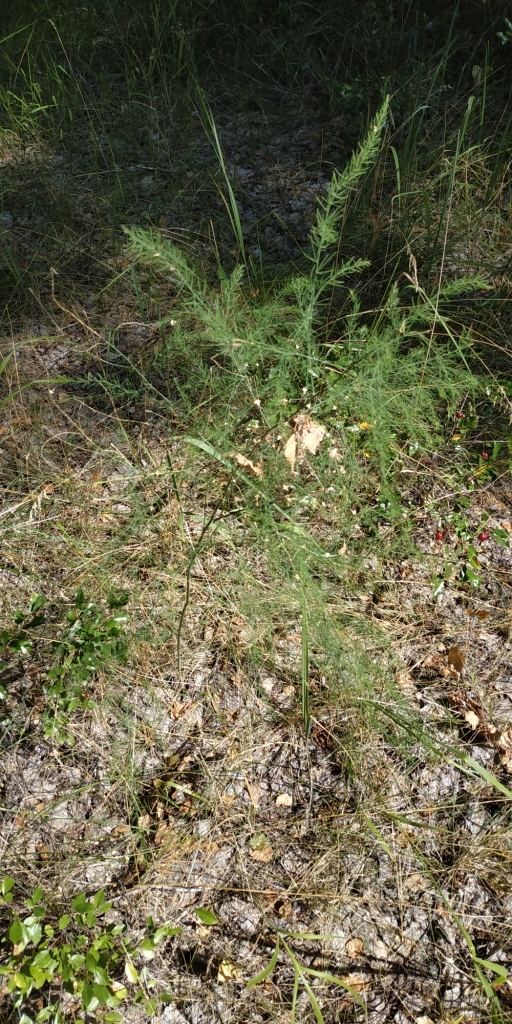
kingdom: Plantae
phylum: Tracheophyta
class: Liliopsida
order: Asparagales
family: Asparagaceae
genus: Asparagus
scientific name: Asparagus officinalis
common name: Garden asparagus
